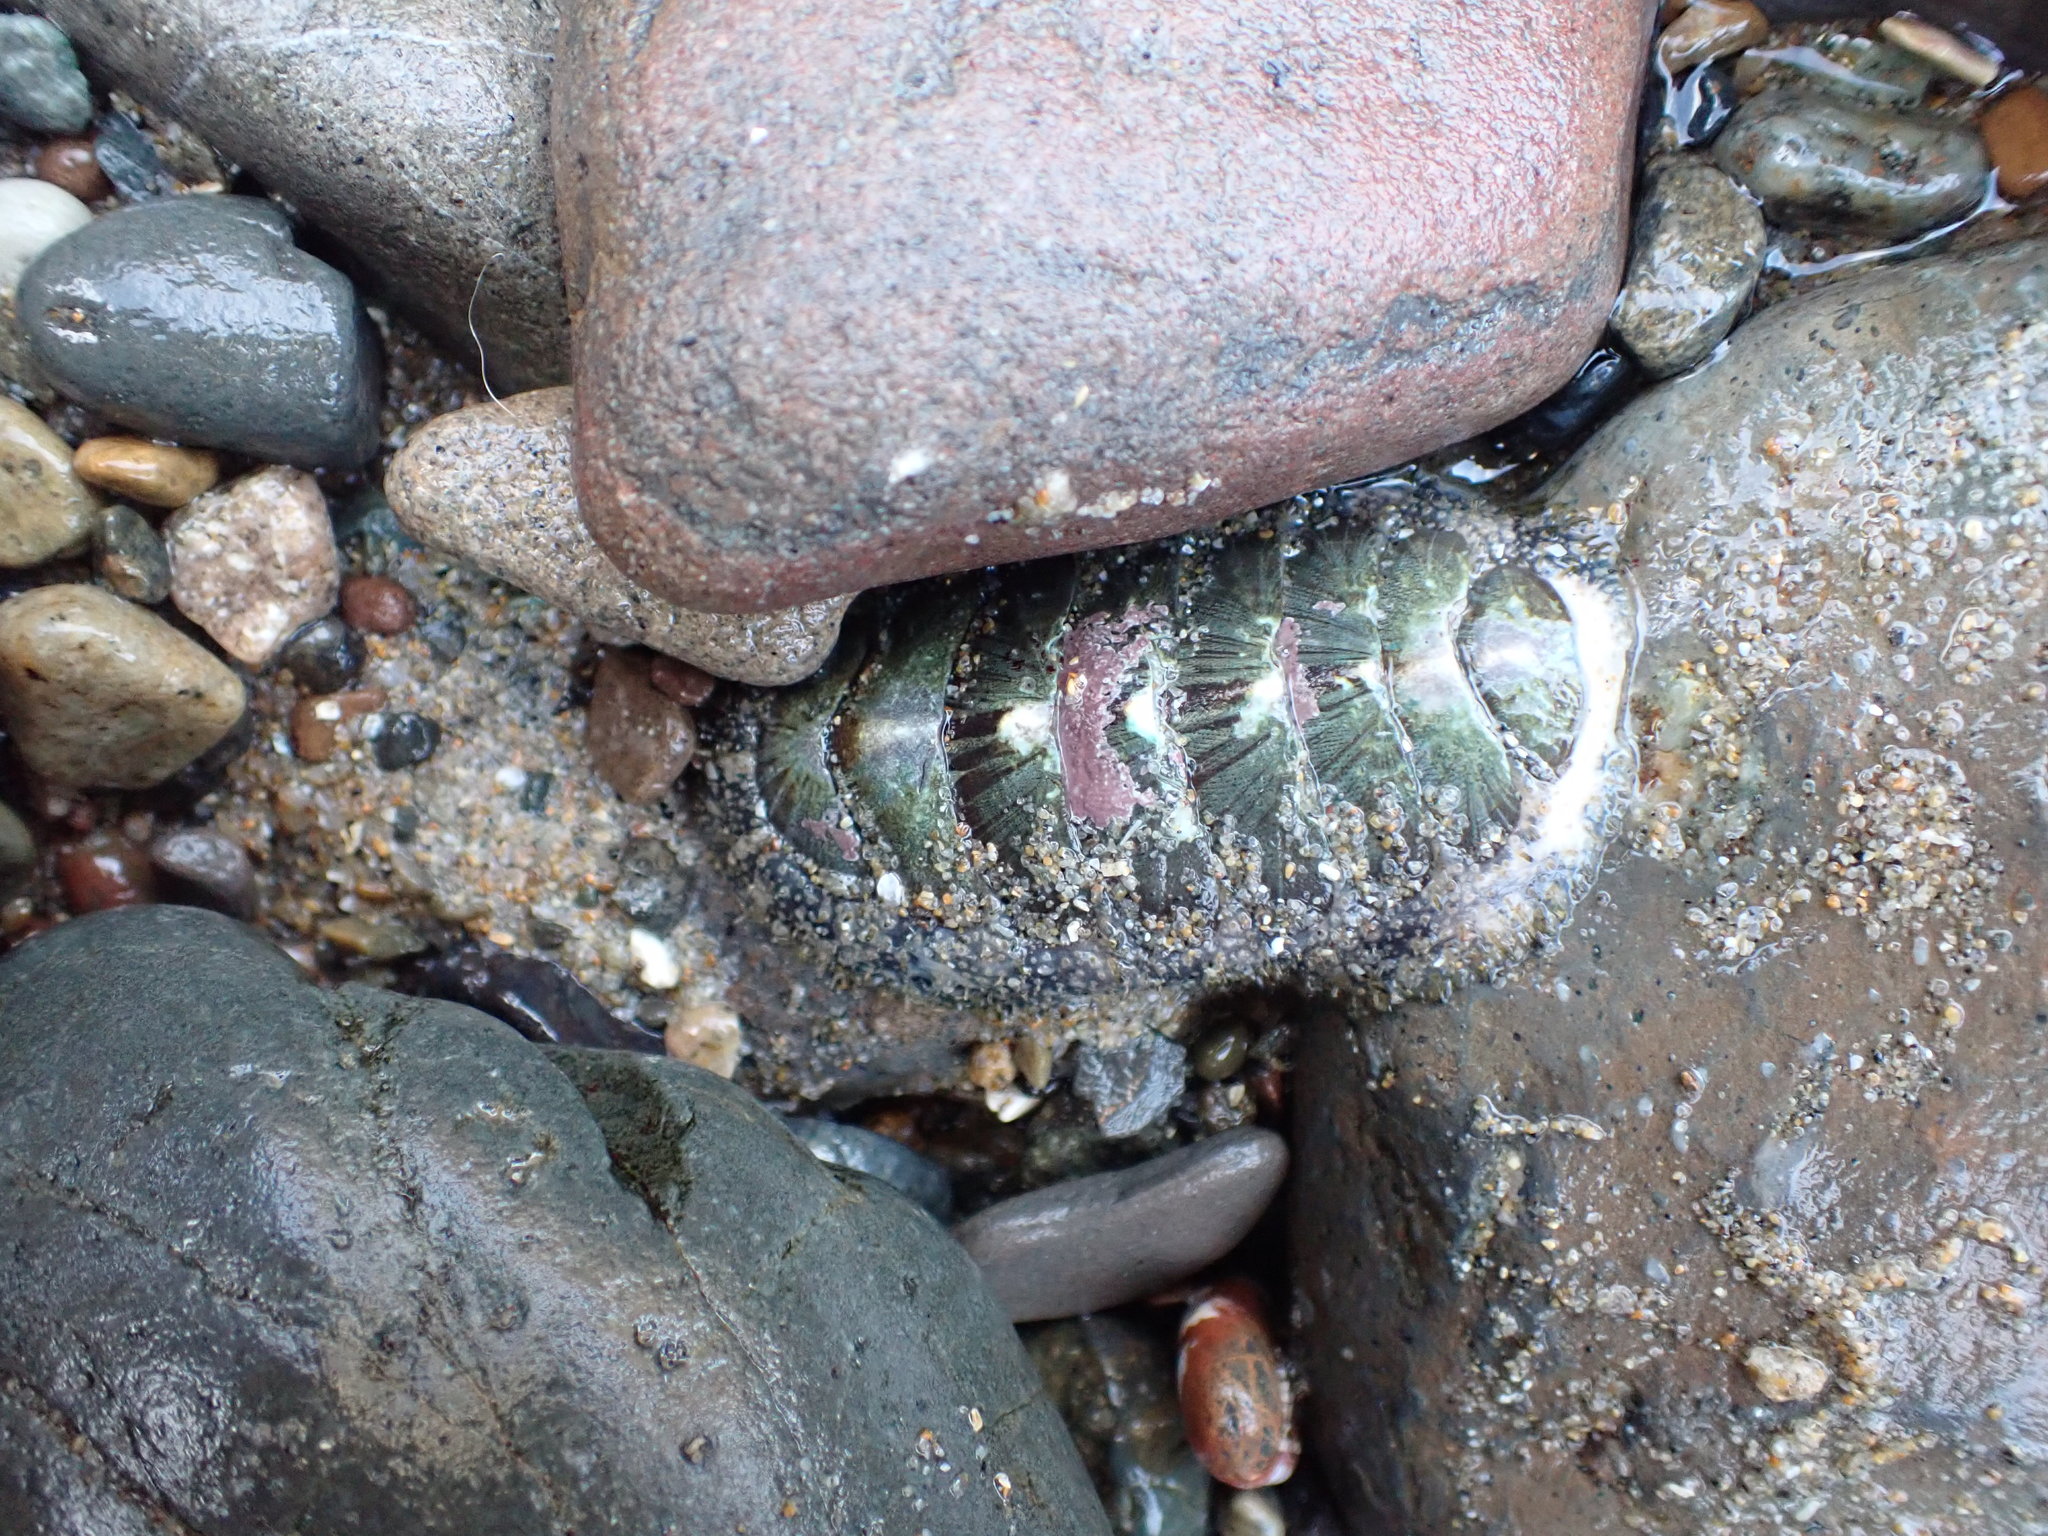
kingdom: Animalia
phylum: Mollusca
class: Polyplacophora
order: Chitonida
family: Mopaliidae
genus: Mopalia
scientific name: Mopalia lignosa
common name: Woody chiton
